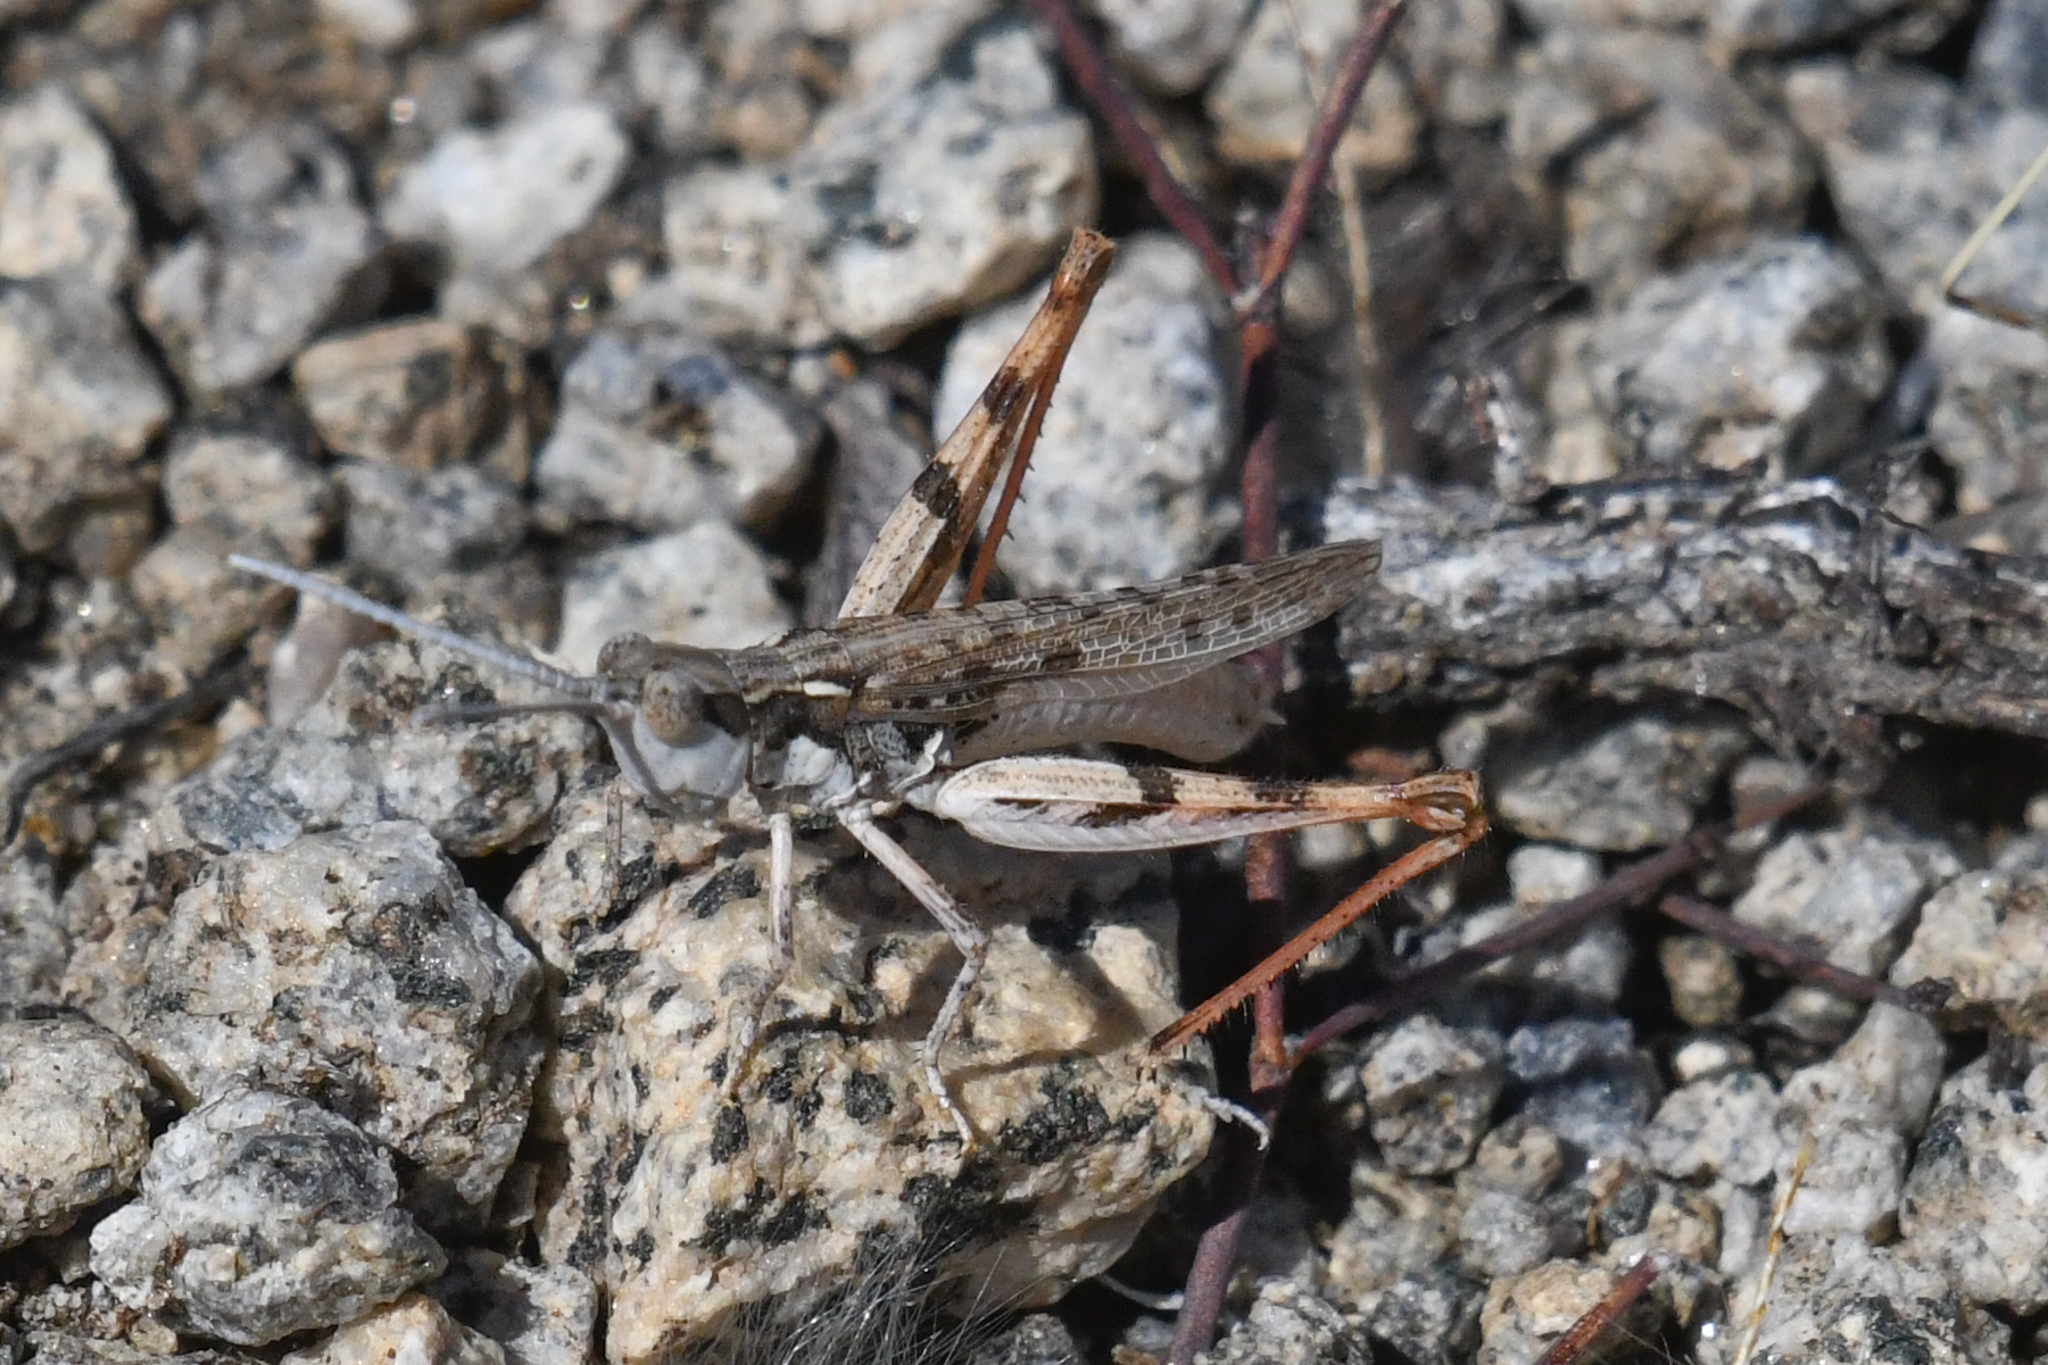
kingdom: Animalia
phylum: Arthropoda
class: Insecta
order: Orthoptera
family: Acrididae
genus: Cordillacris
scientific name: Cordillacris occipitalis
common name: Spotted-winged grasshopper
